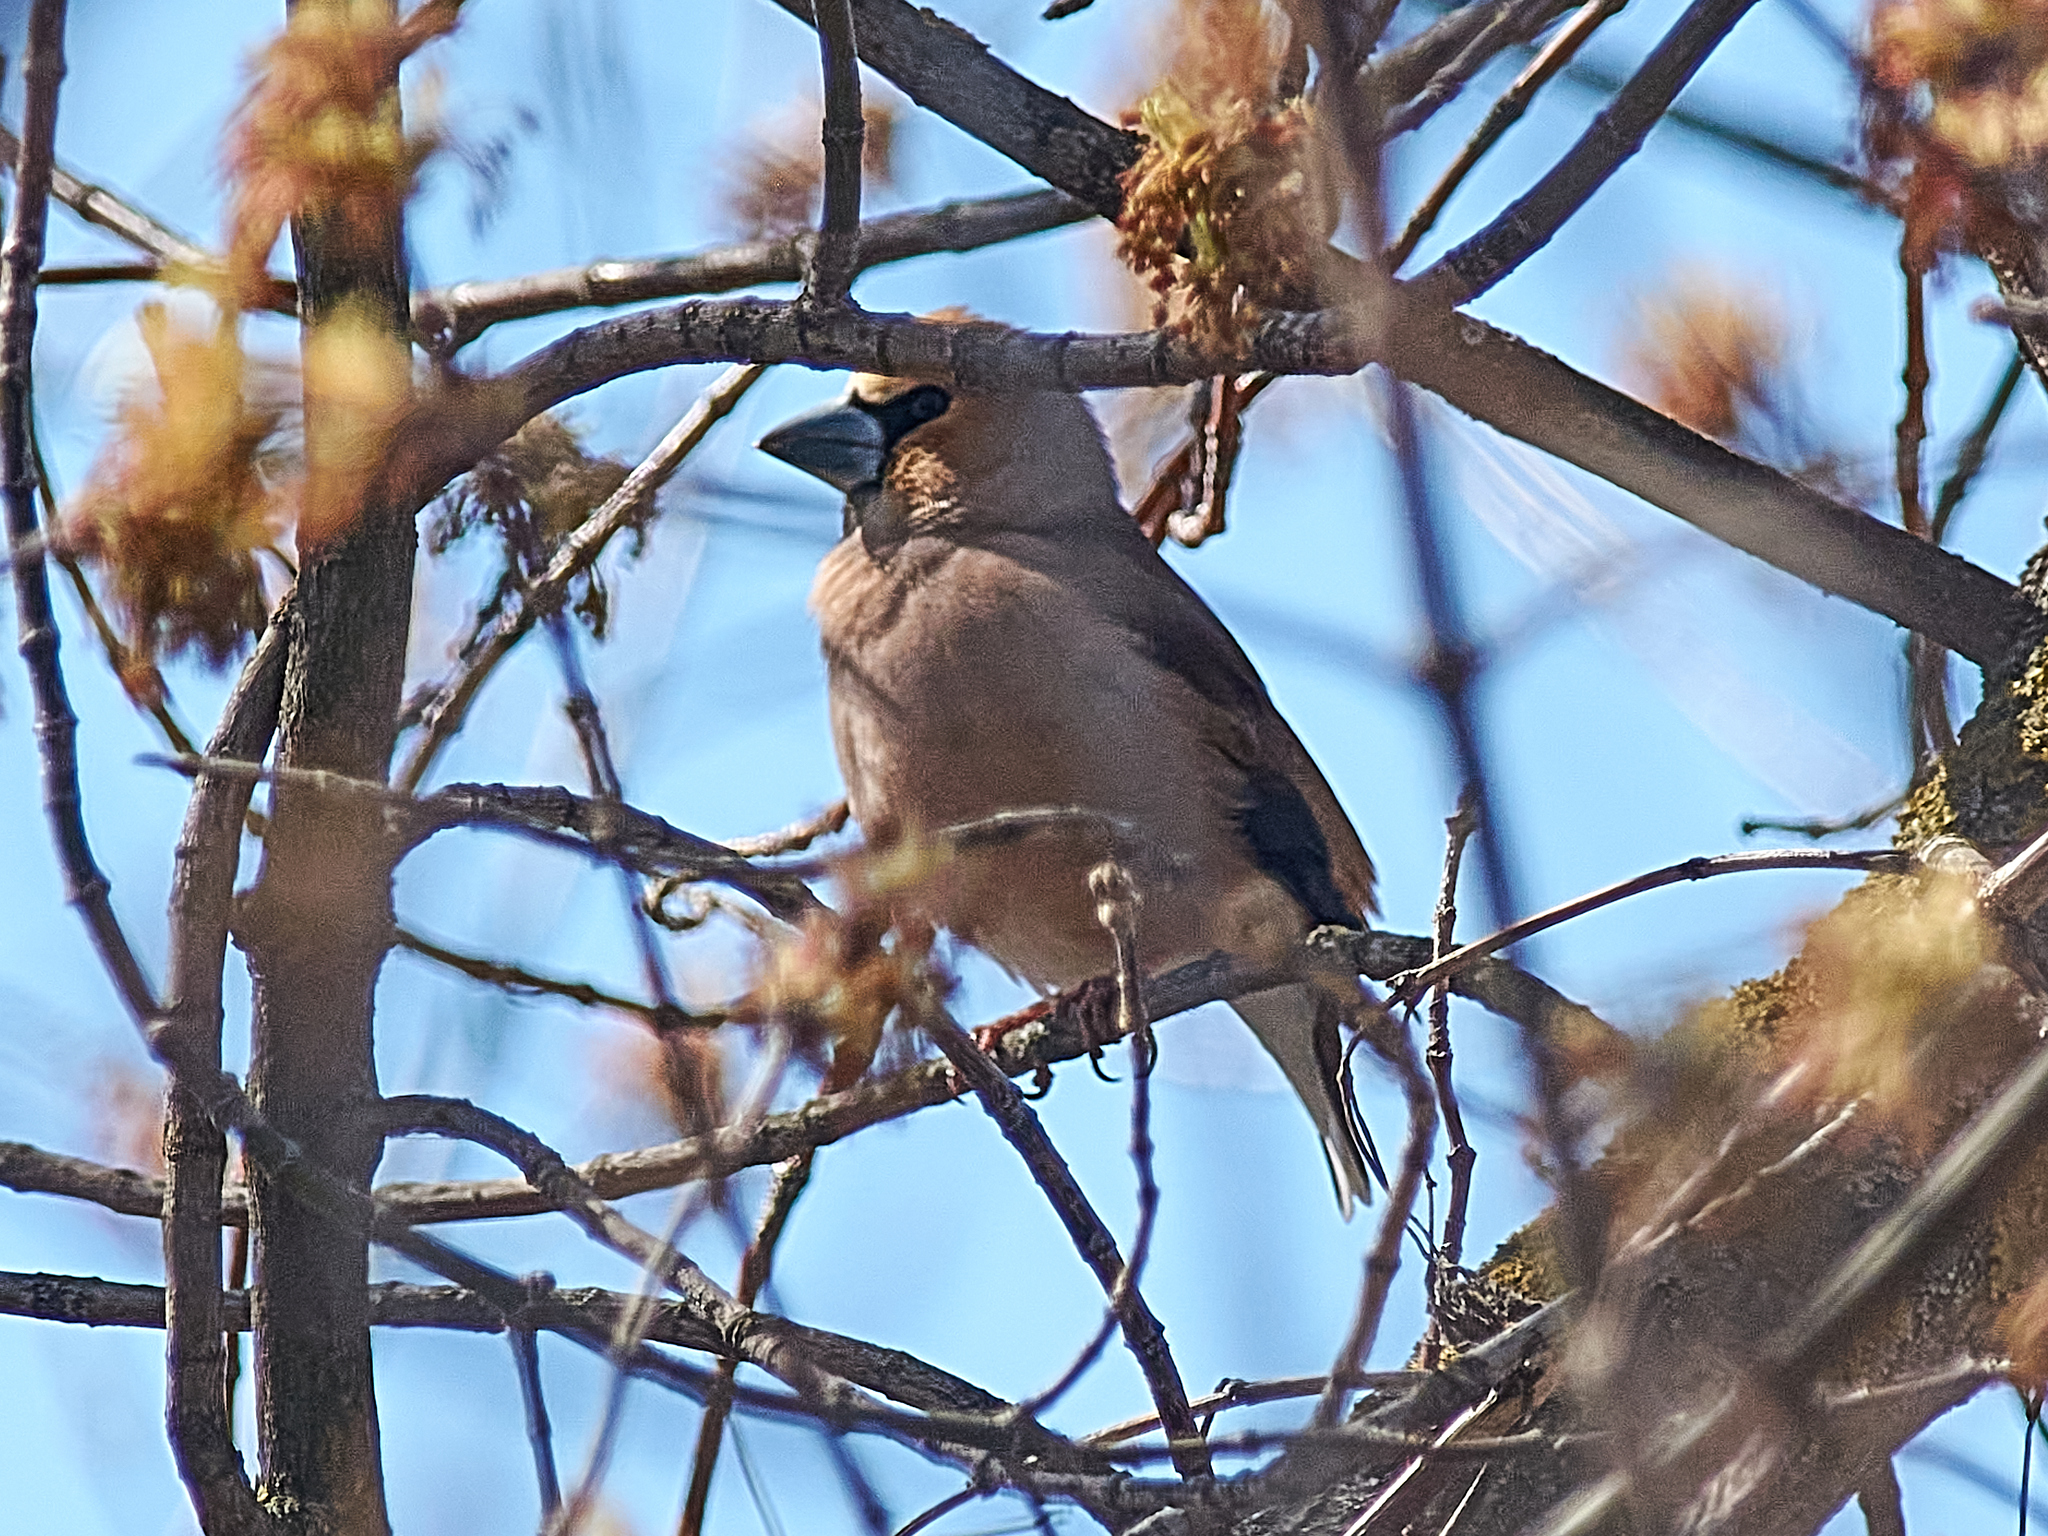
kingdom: Animalia
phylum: Chordata
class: Aves
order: Passeriformes
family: Fringillidae
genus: Coccothraustes
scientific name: Coccothraustes coccothraustes
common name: Hawfinch
